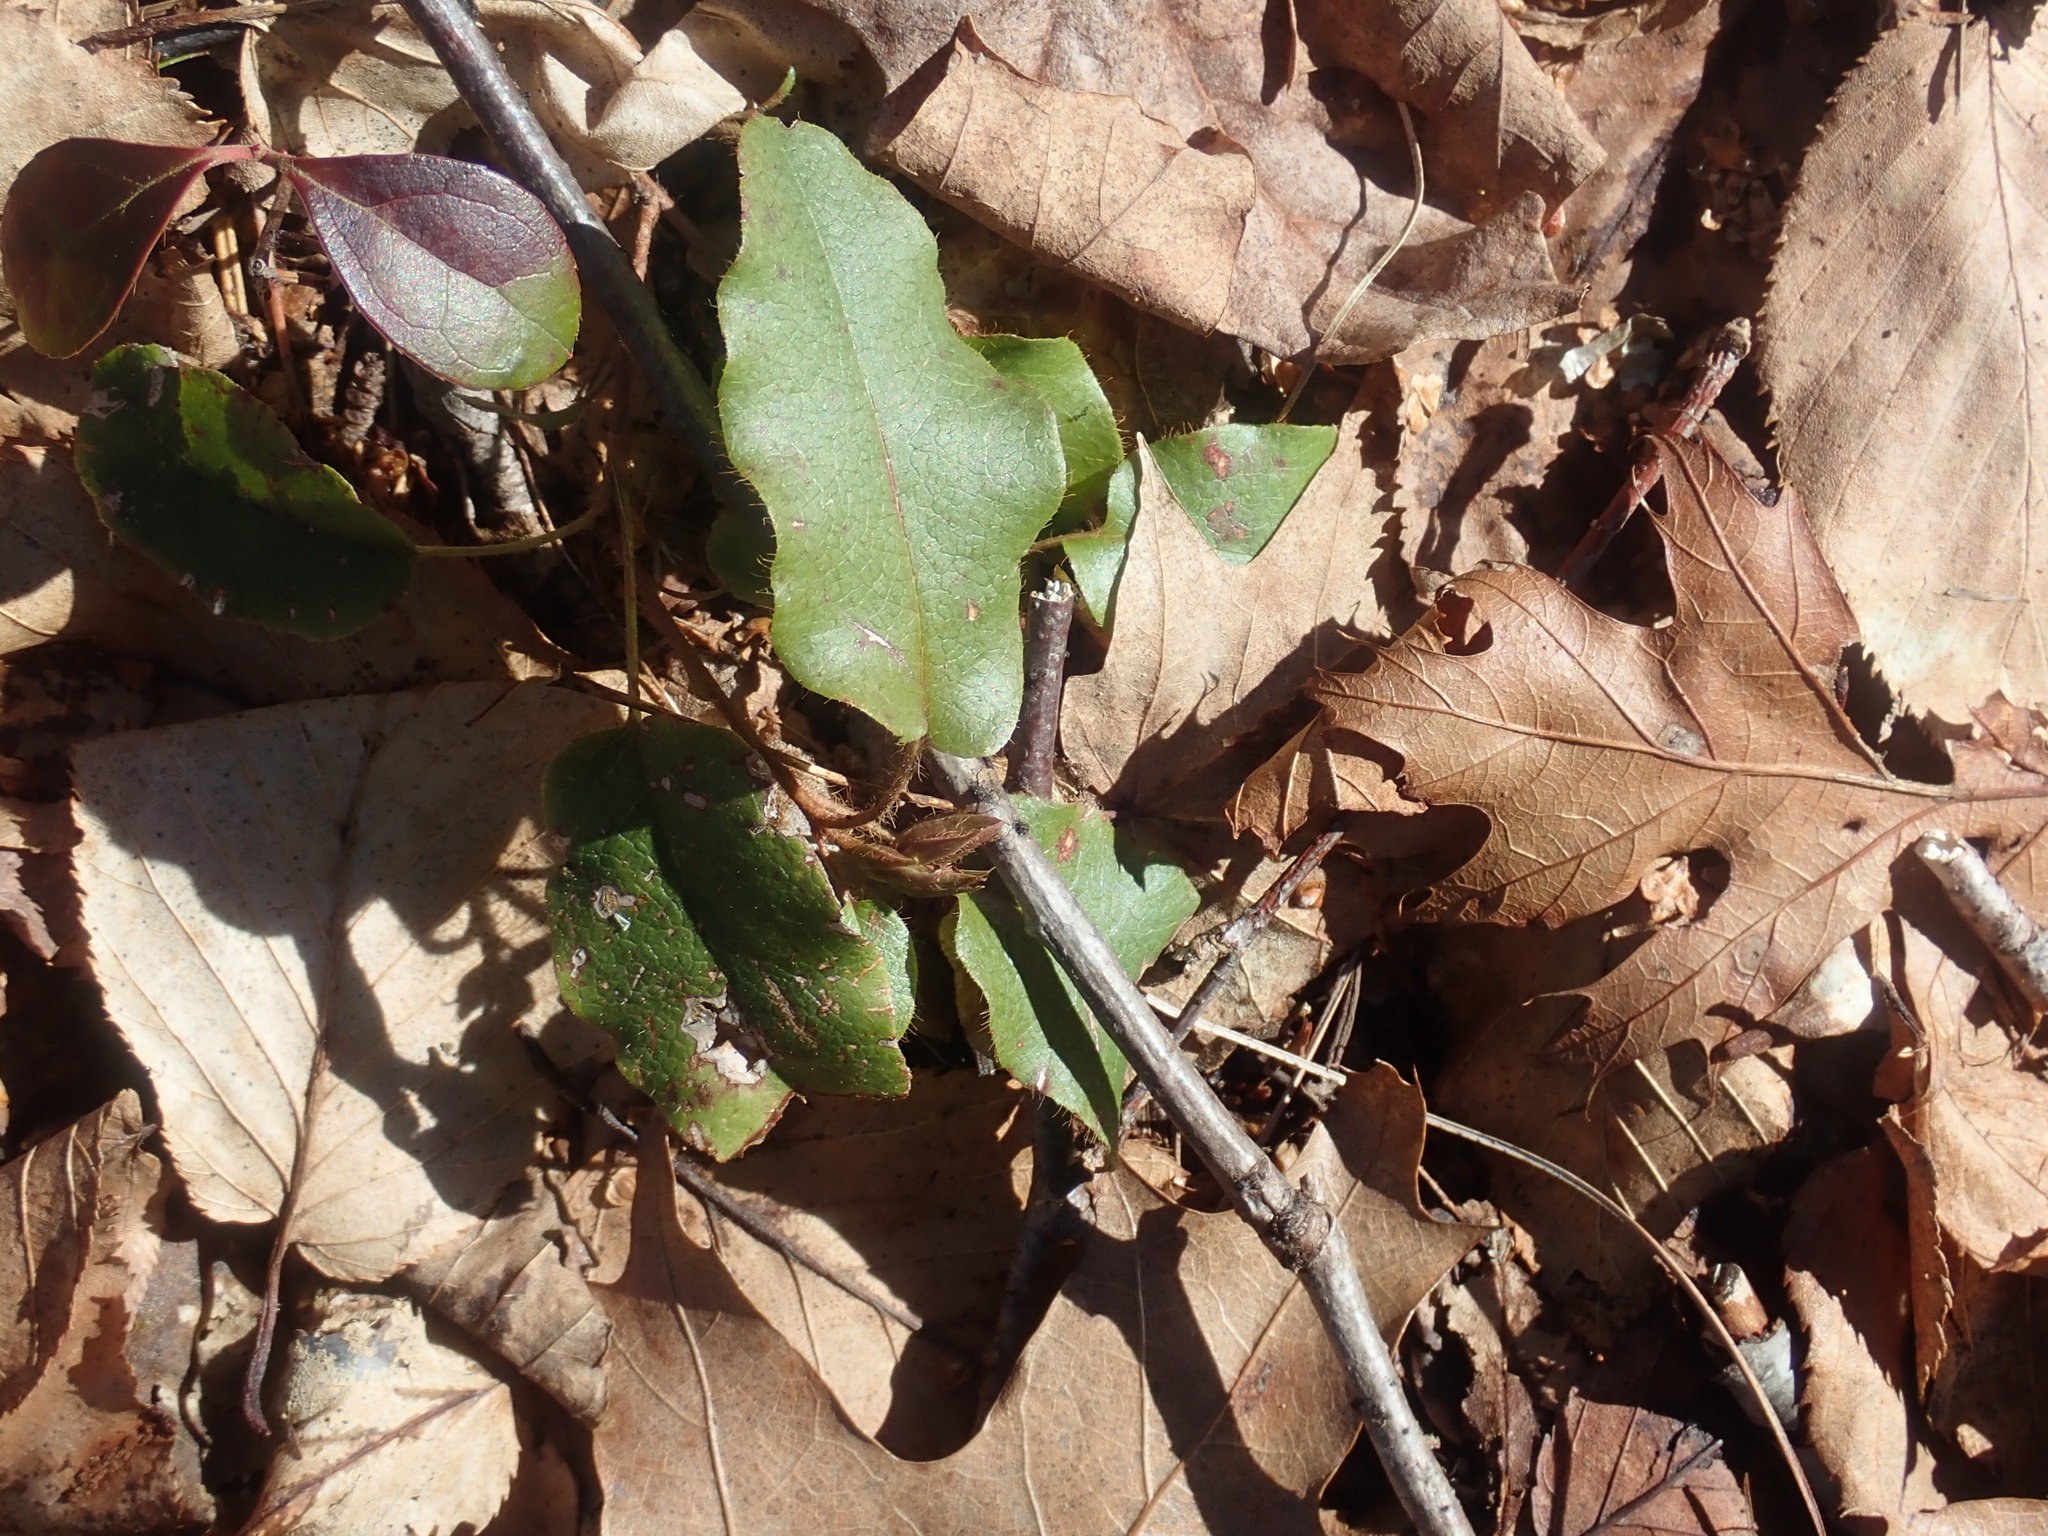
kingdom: Plantae
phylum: Tracheophyta
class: Magnoliopsida
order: Ericales
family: Ericaceae
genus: Epigaea
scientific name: Epigaea repens
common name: Gravelroot
